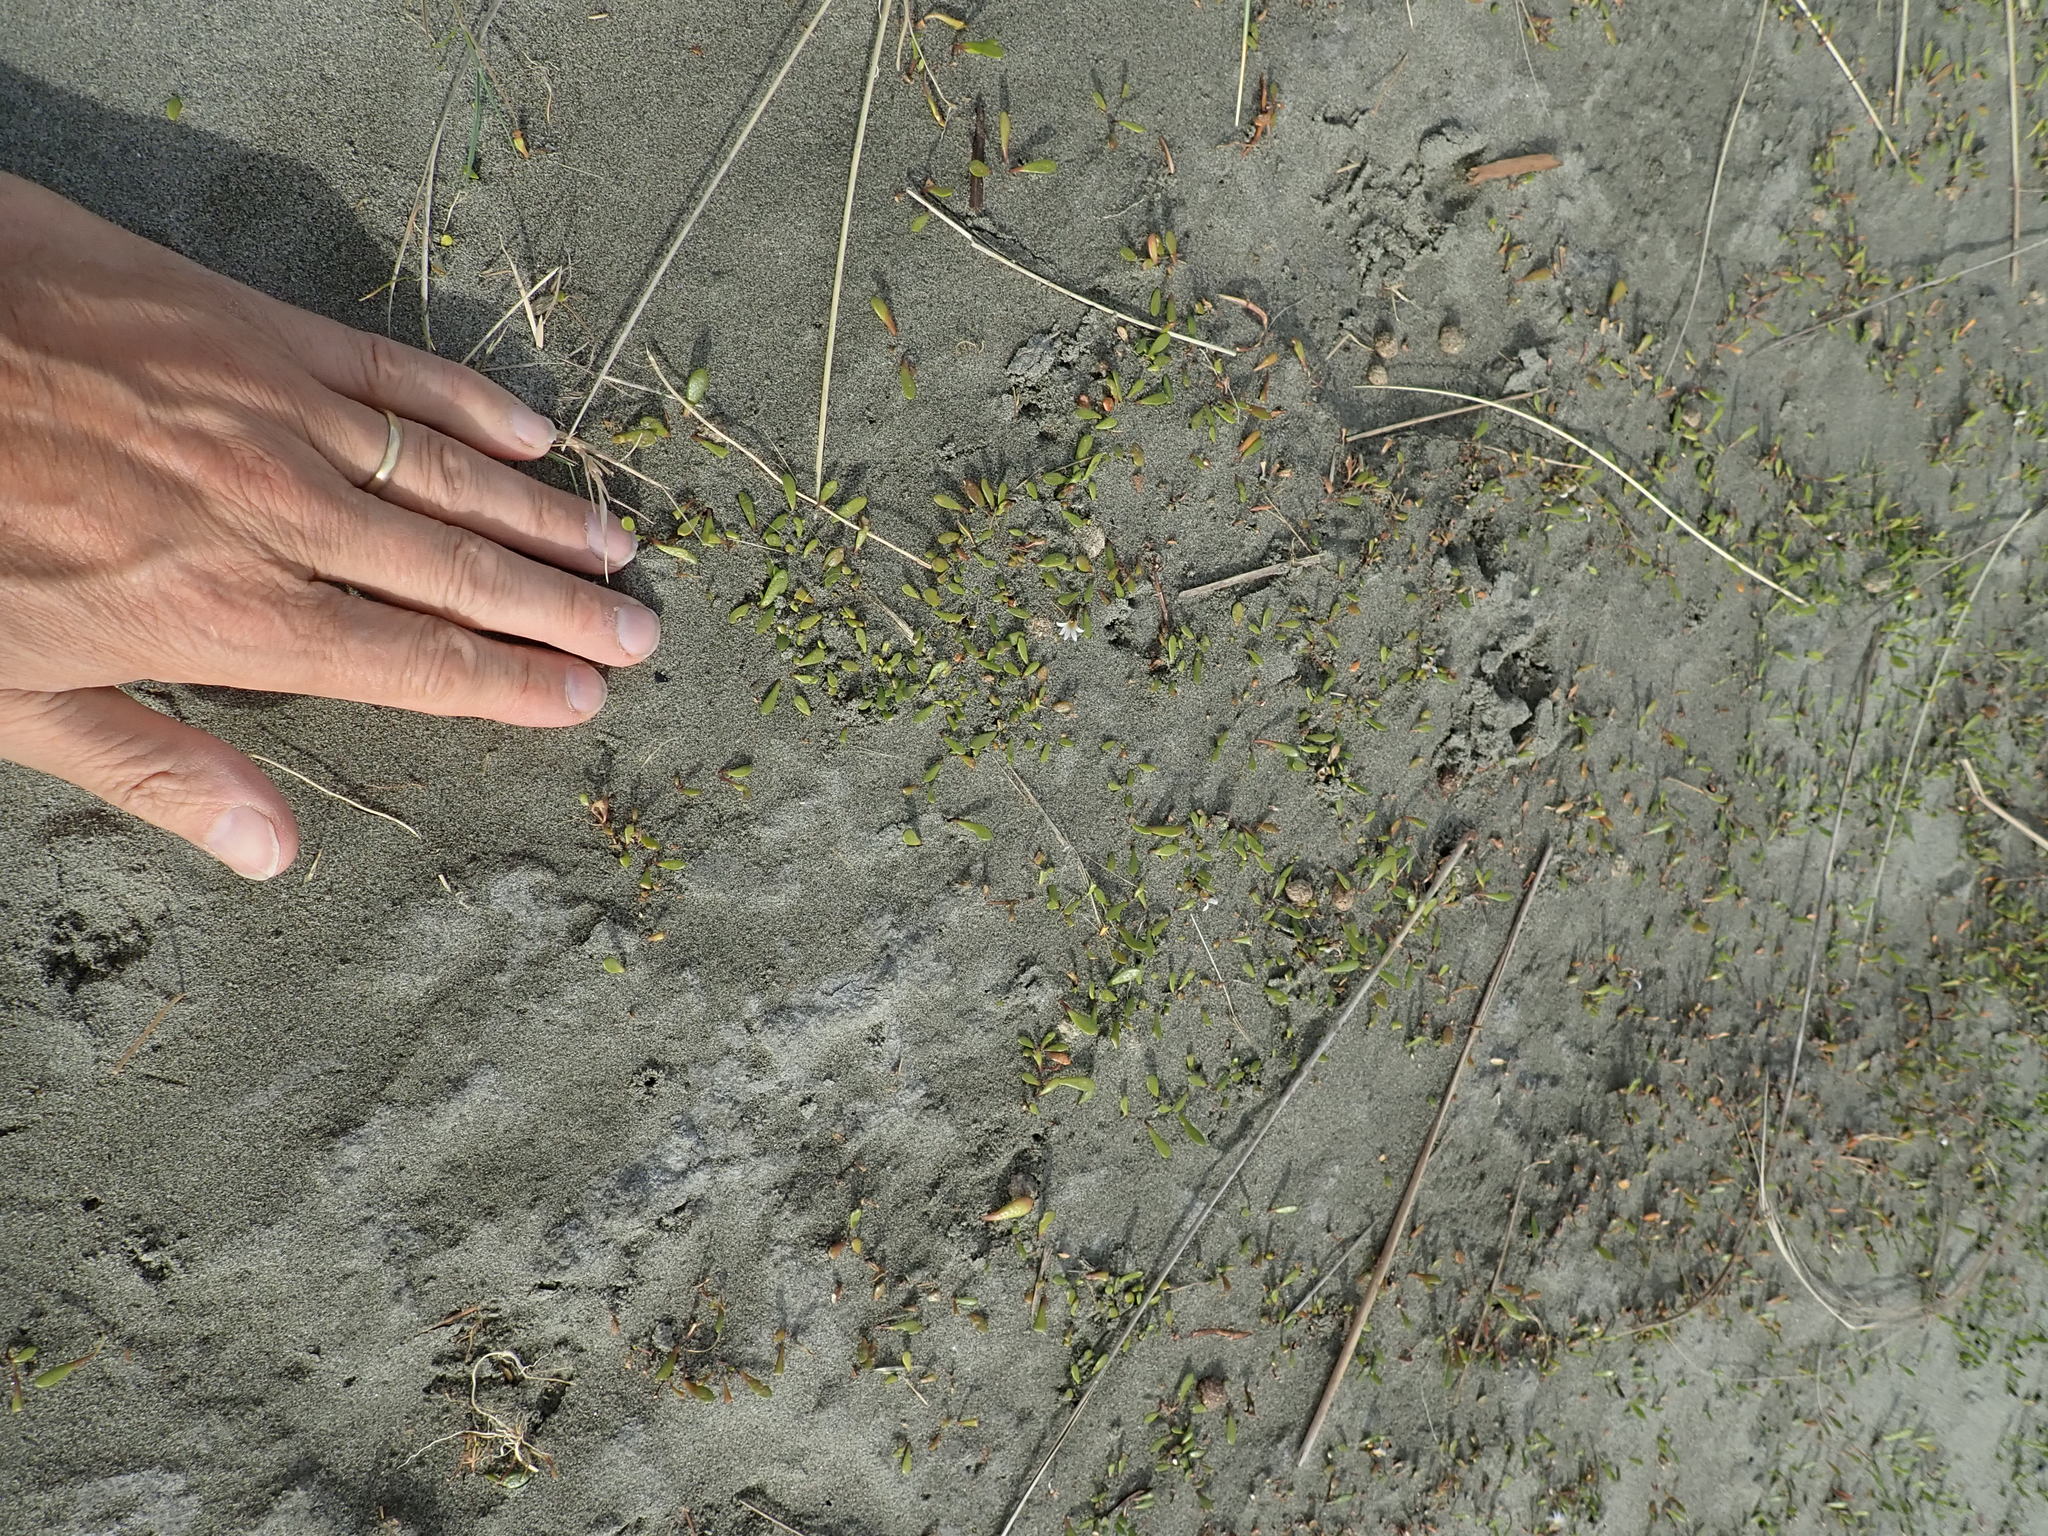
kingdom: Plantae
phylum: Tracheophyta
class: Magnoliopsida
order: Asterales
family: Goodeniaceae
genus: Goodenia
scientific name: Goodenia radicans
